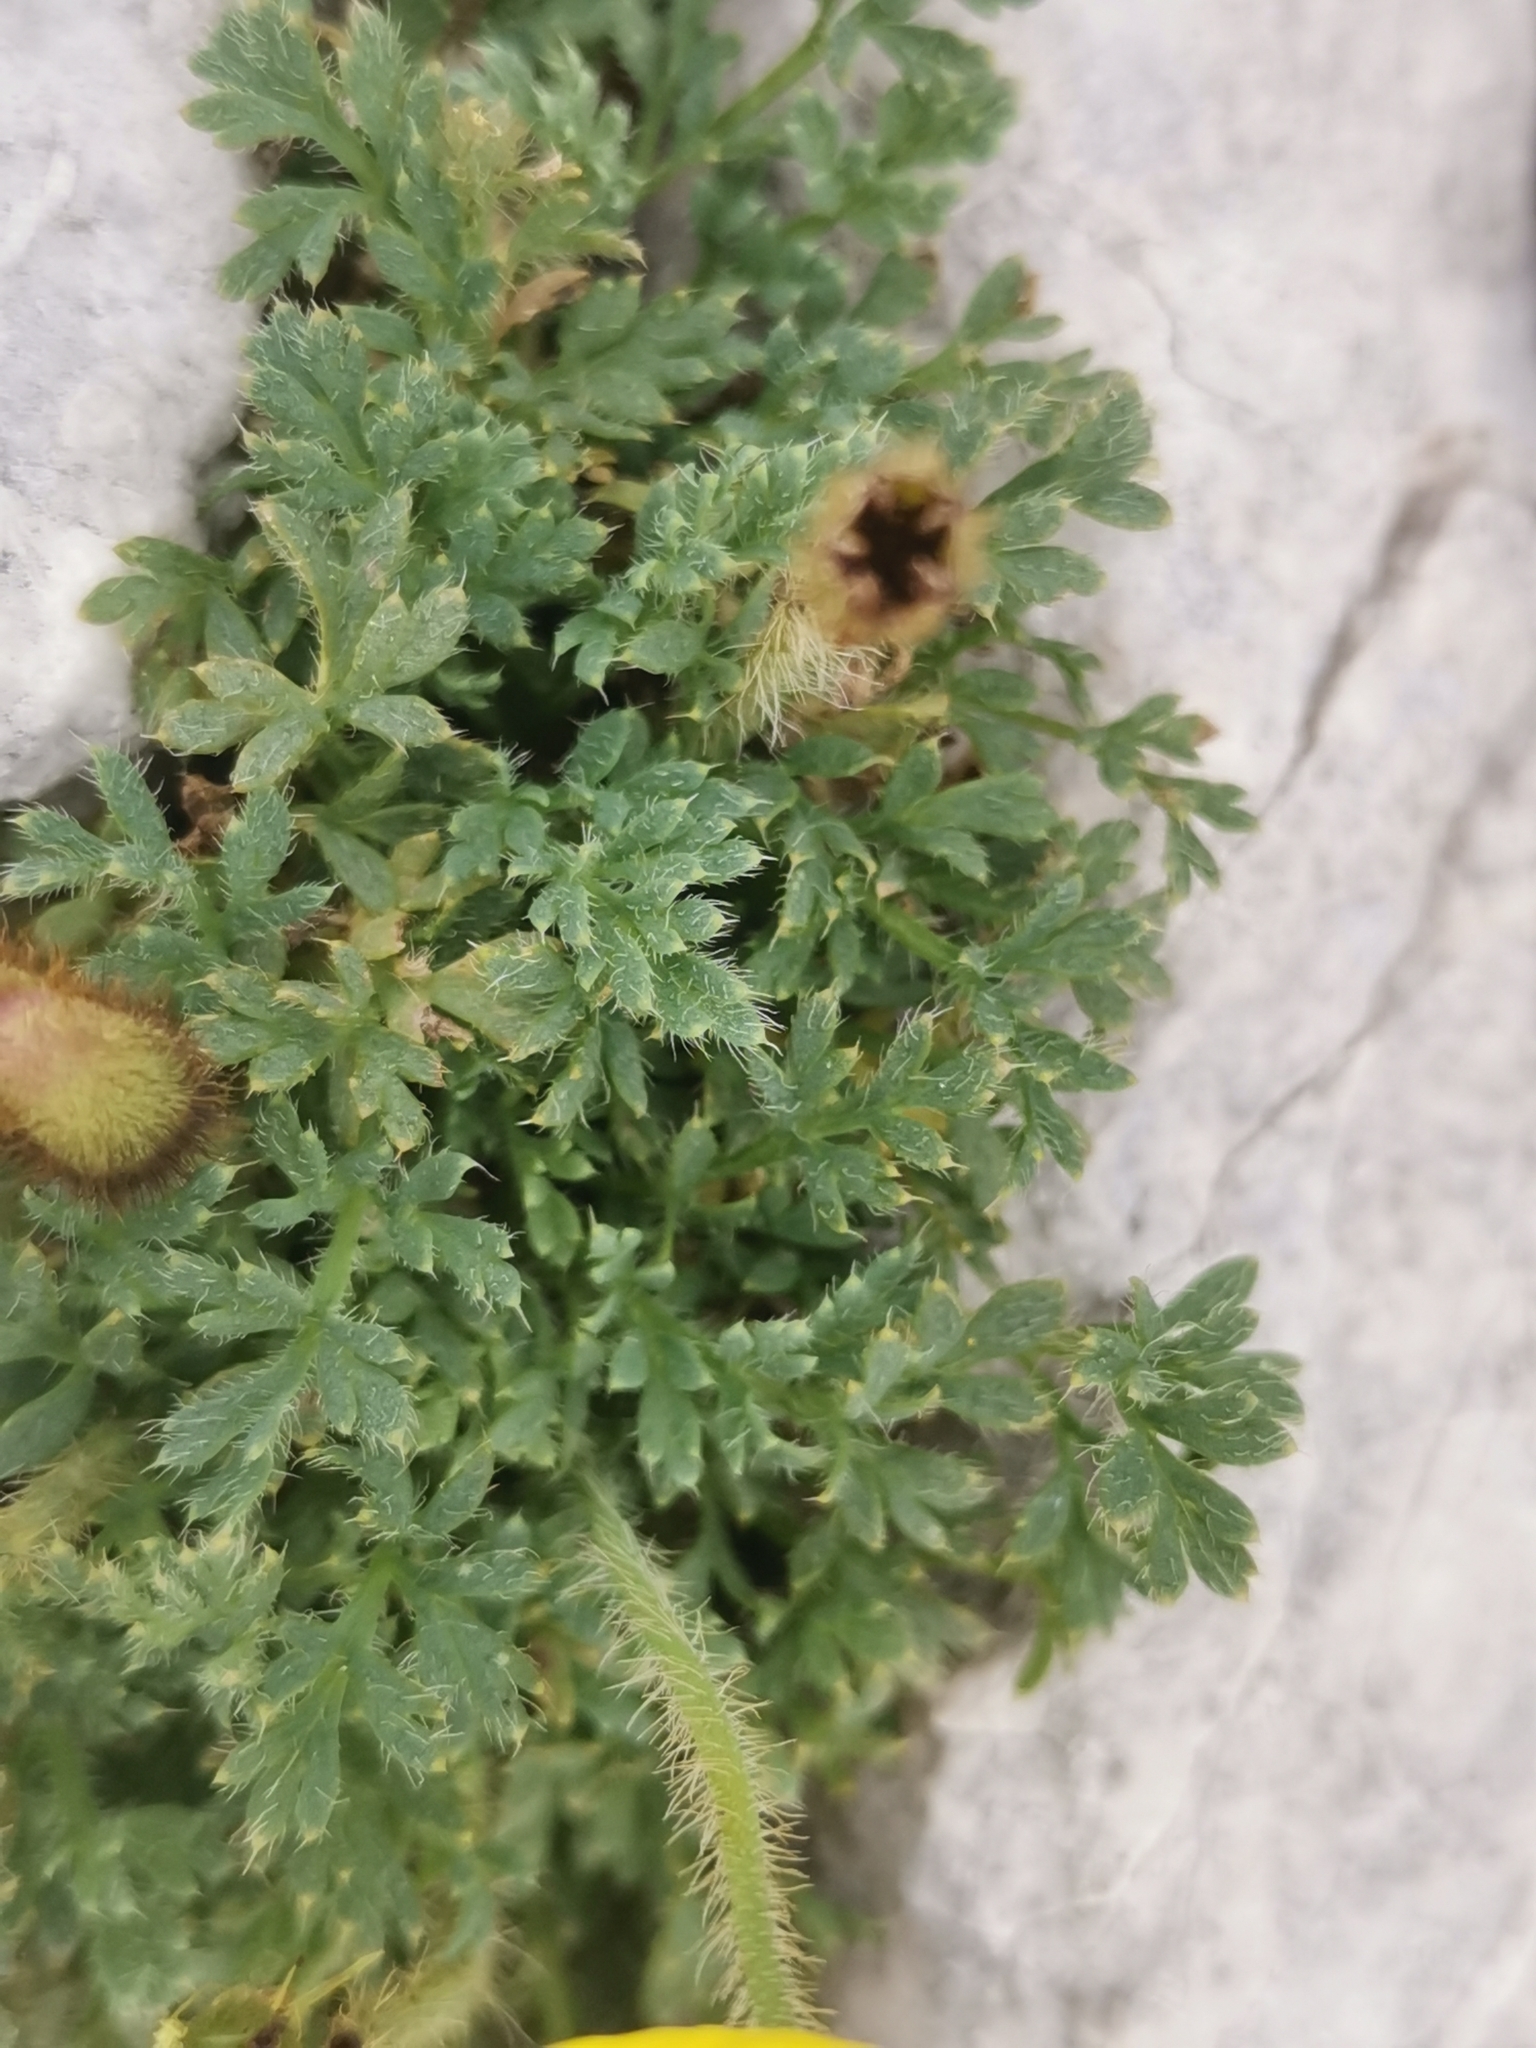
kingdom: Plantae
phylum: Tracheophyta
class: Magnoliopsida
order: Ranunculales
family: Papaveraceae
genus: Papaver
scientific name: Papaver alpinum
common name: Austrian poppy
